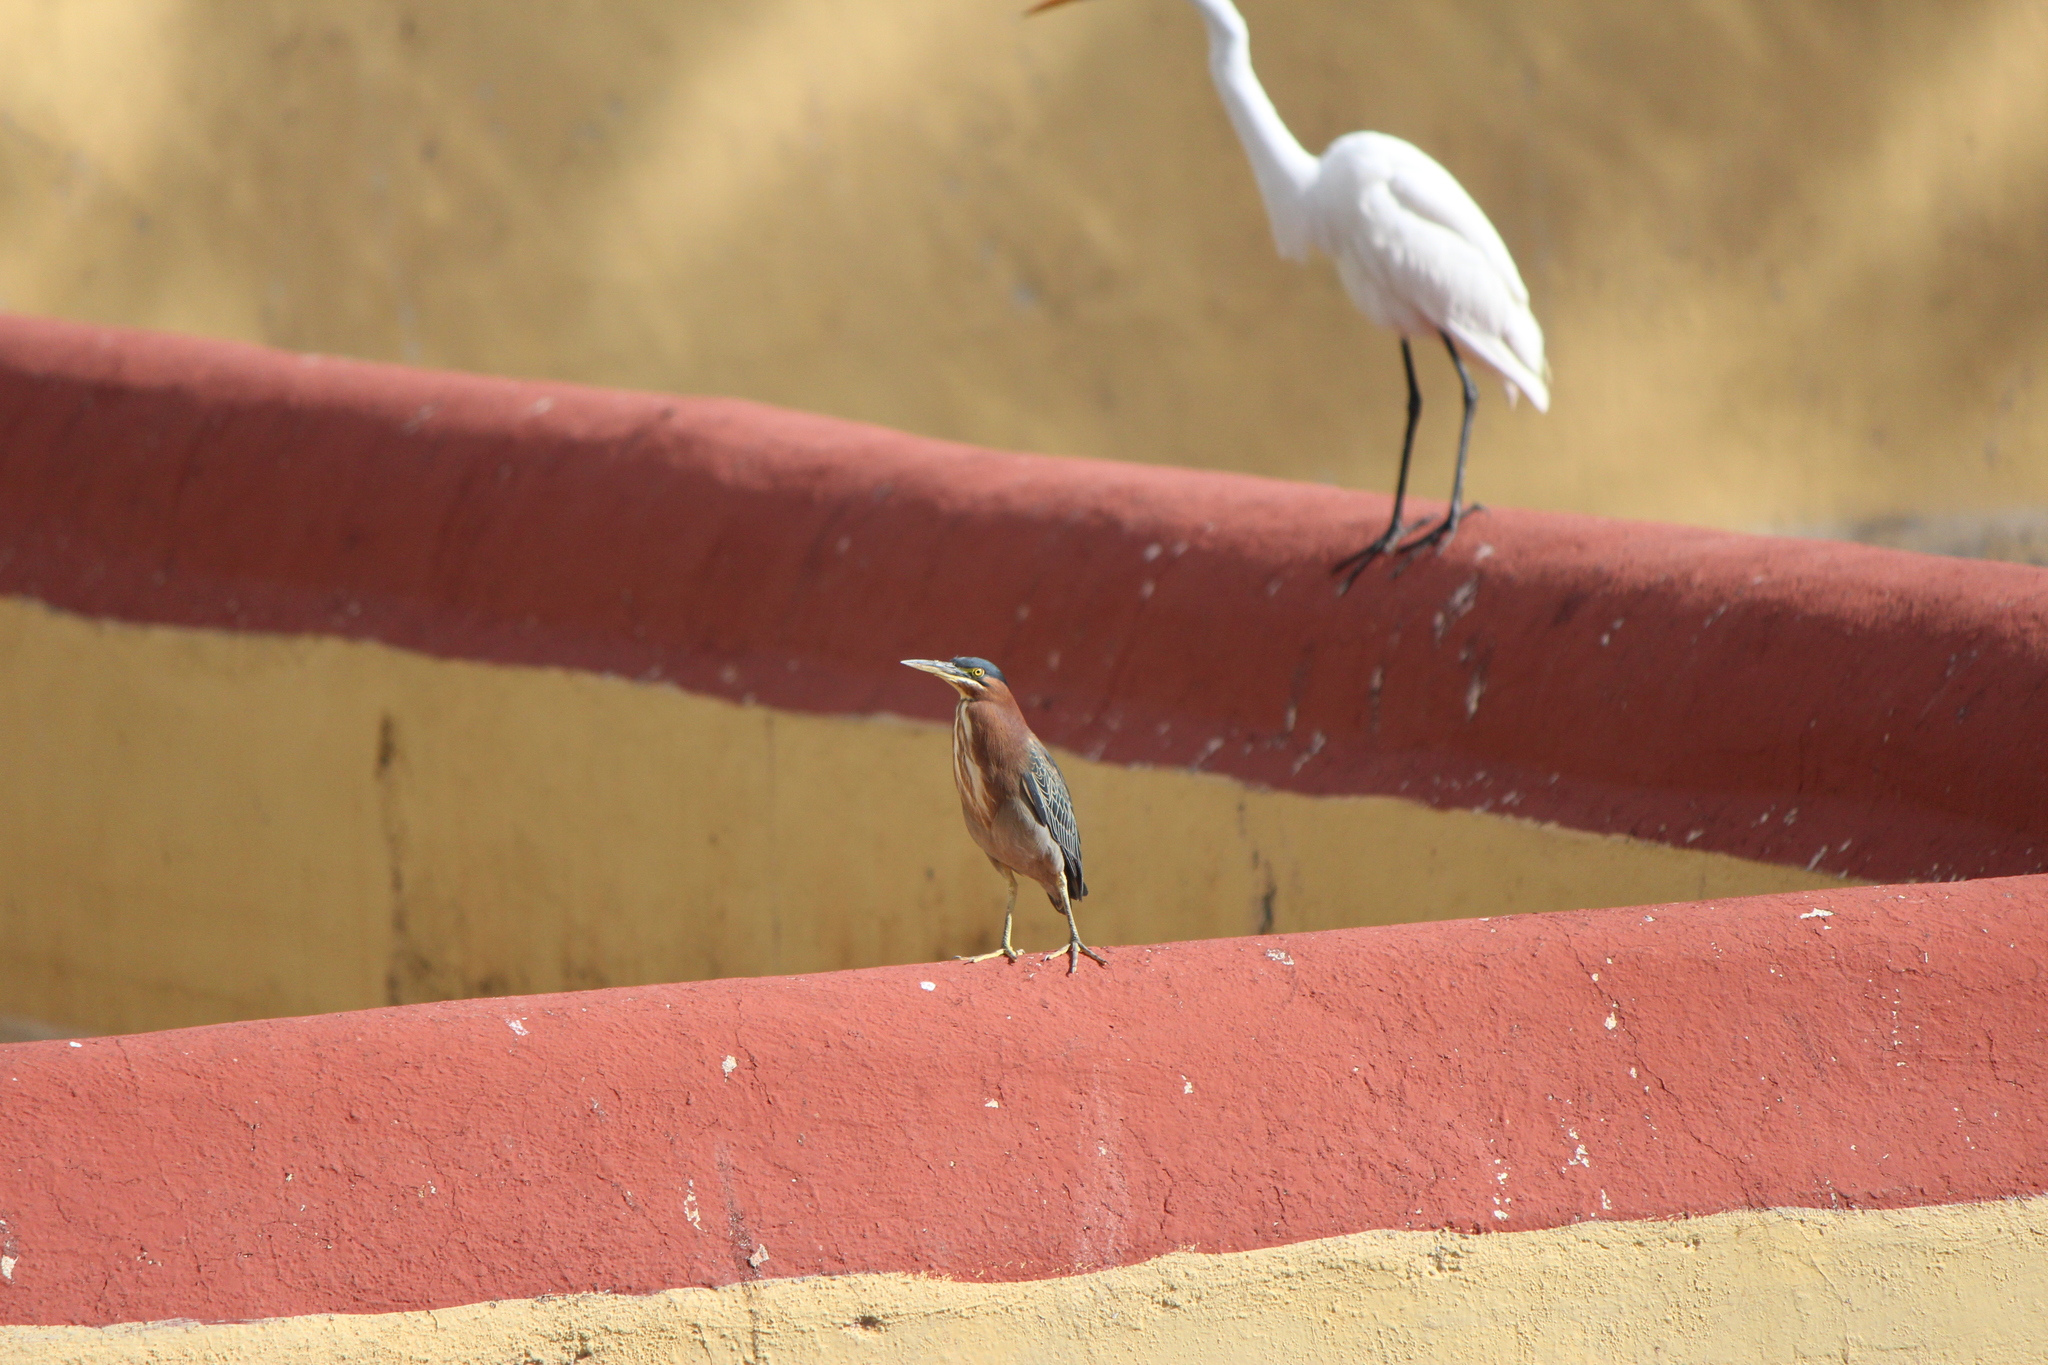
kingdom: Animalia
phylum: Chordata
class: Aves
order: Pelecaniformes
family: Ardeidae
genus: Butorides
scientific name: Butorides virescens
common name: Green heron
